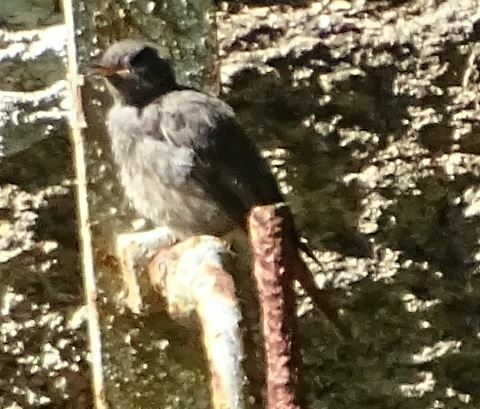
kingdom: Animalia
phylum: Chordata
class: Aves
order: Passeriformes
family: Muscicapidae
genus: Phoenicurus
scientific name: Phoenicurus ochruros
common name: Black redstart
